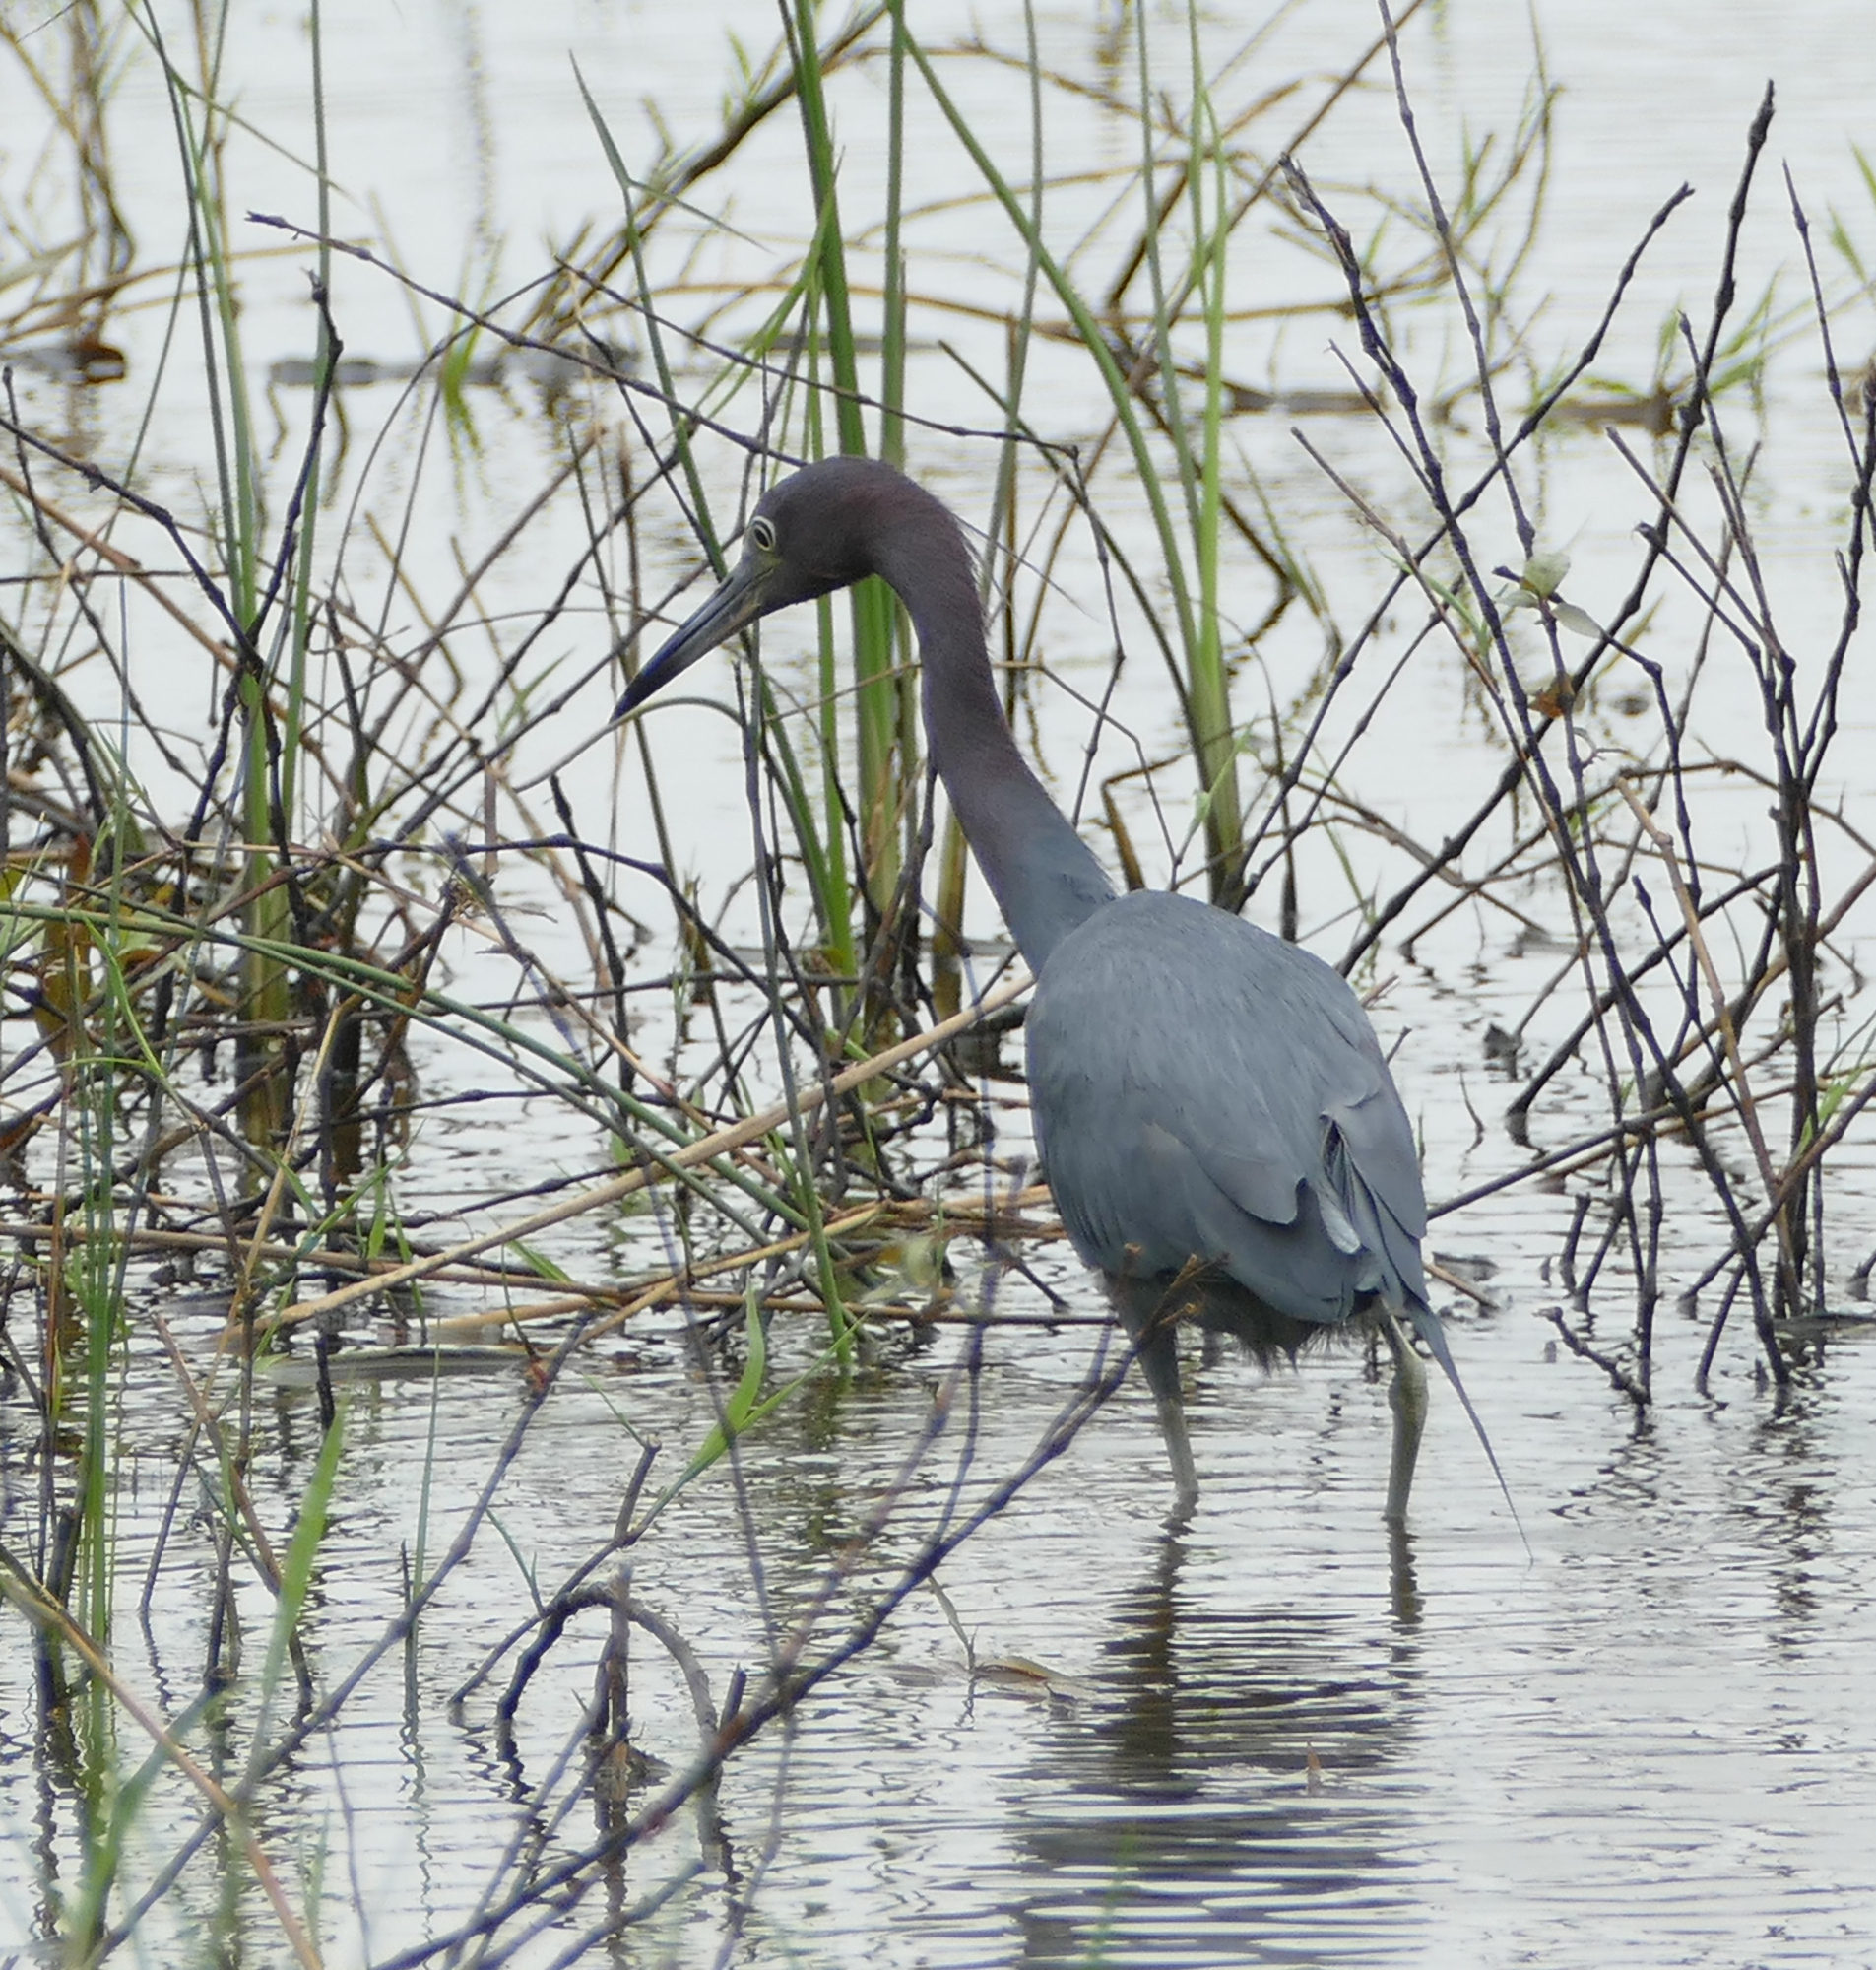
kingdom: Animalia
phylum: Chordata
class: Aves
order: Pelecaniformes
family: Ardeidae
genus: Egretta
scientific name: Egretta caerulea
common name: Little blue heron
